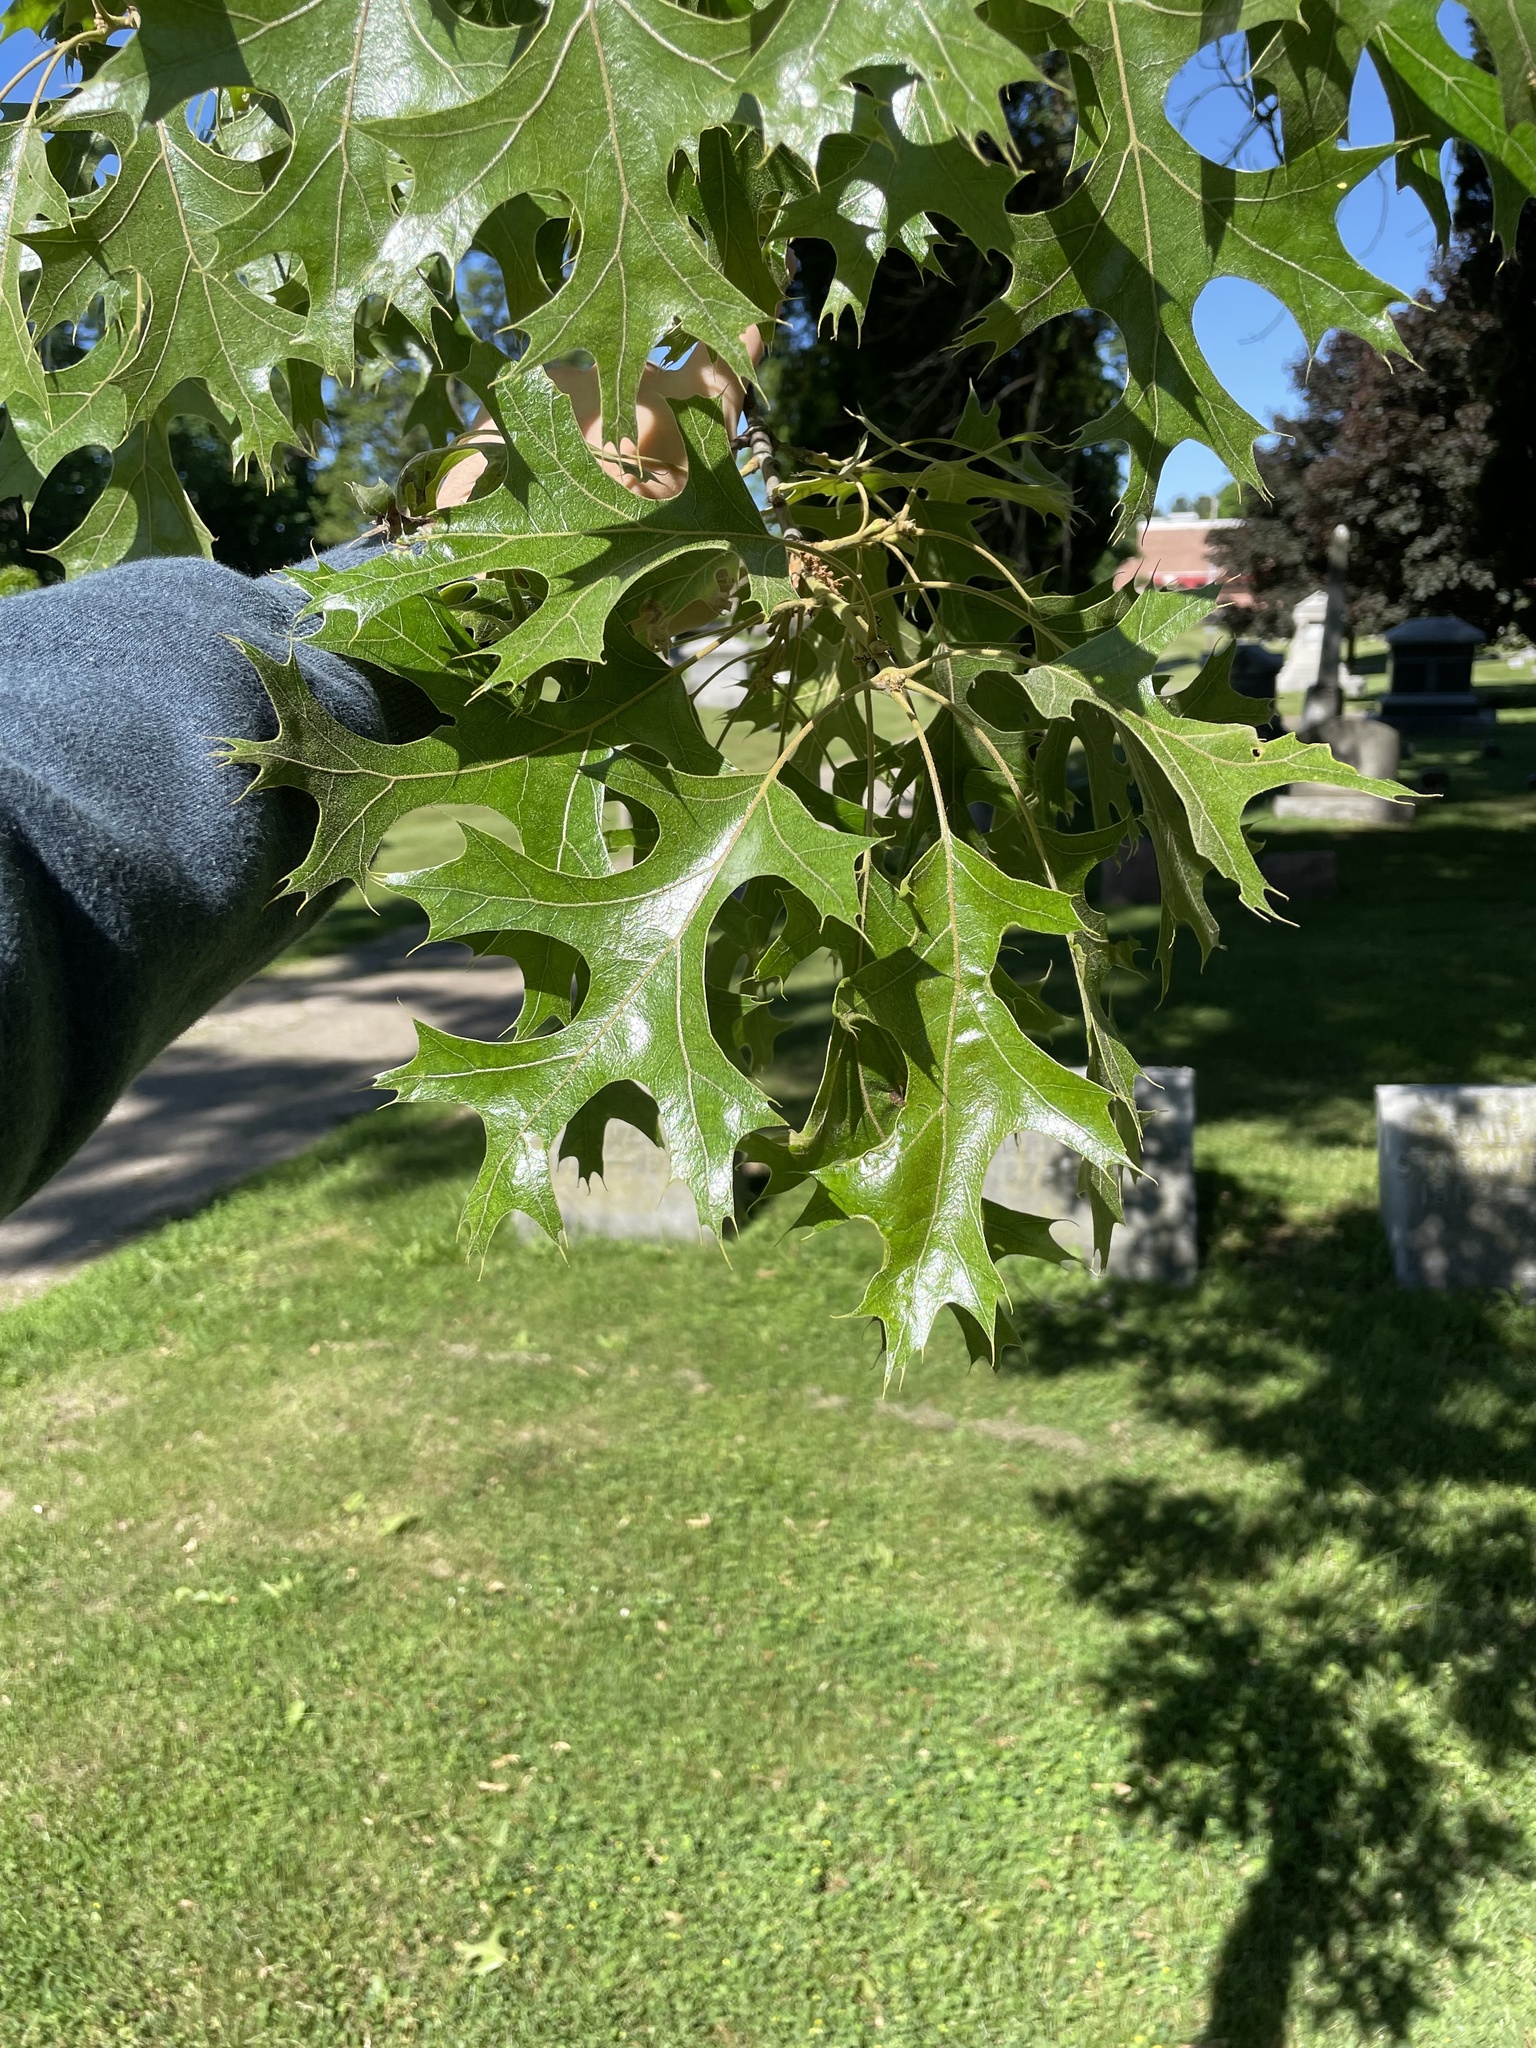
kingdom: Plantae
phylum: Tracheophyta
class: Magnoliopsida
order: Fagales
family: Fagaceae
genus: Quercus
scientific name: Quercus velutina
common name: Black oak
